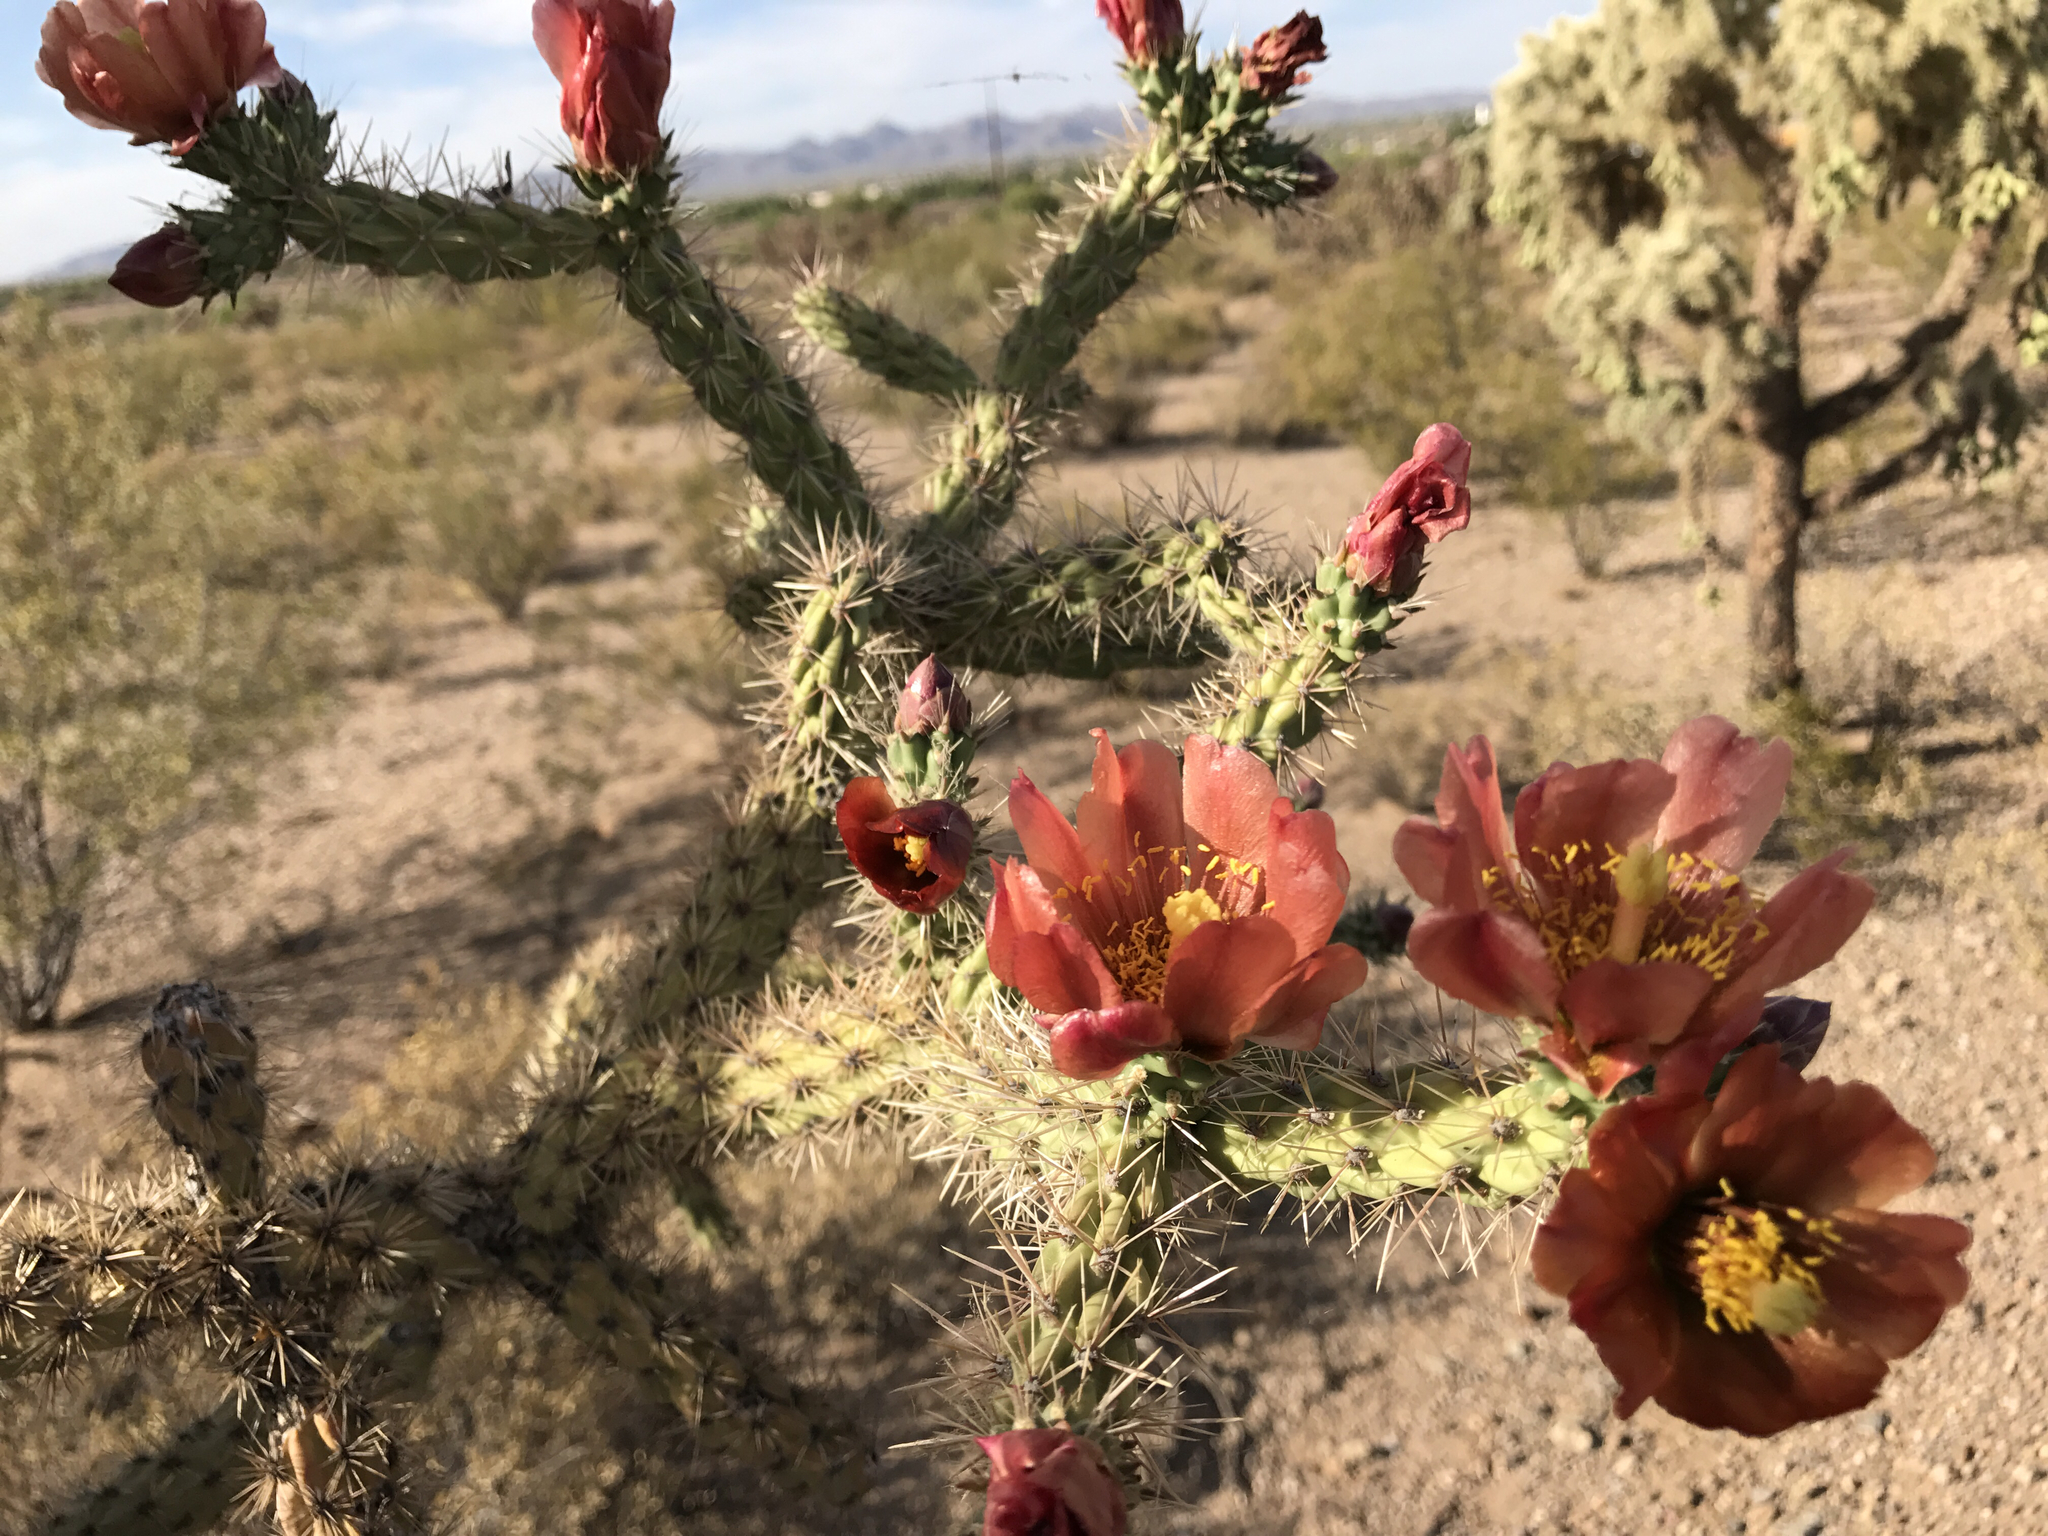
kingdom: Plantae
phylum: Tracheophyta
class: Magnoliopsida
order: Caryophyllales
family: Cactaceae
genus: Cylindropuntia
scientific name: Cylindropuntia thurberi
